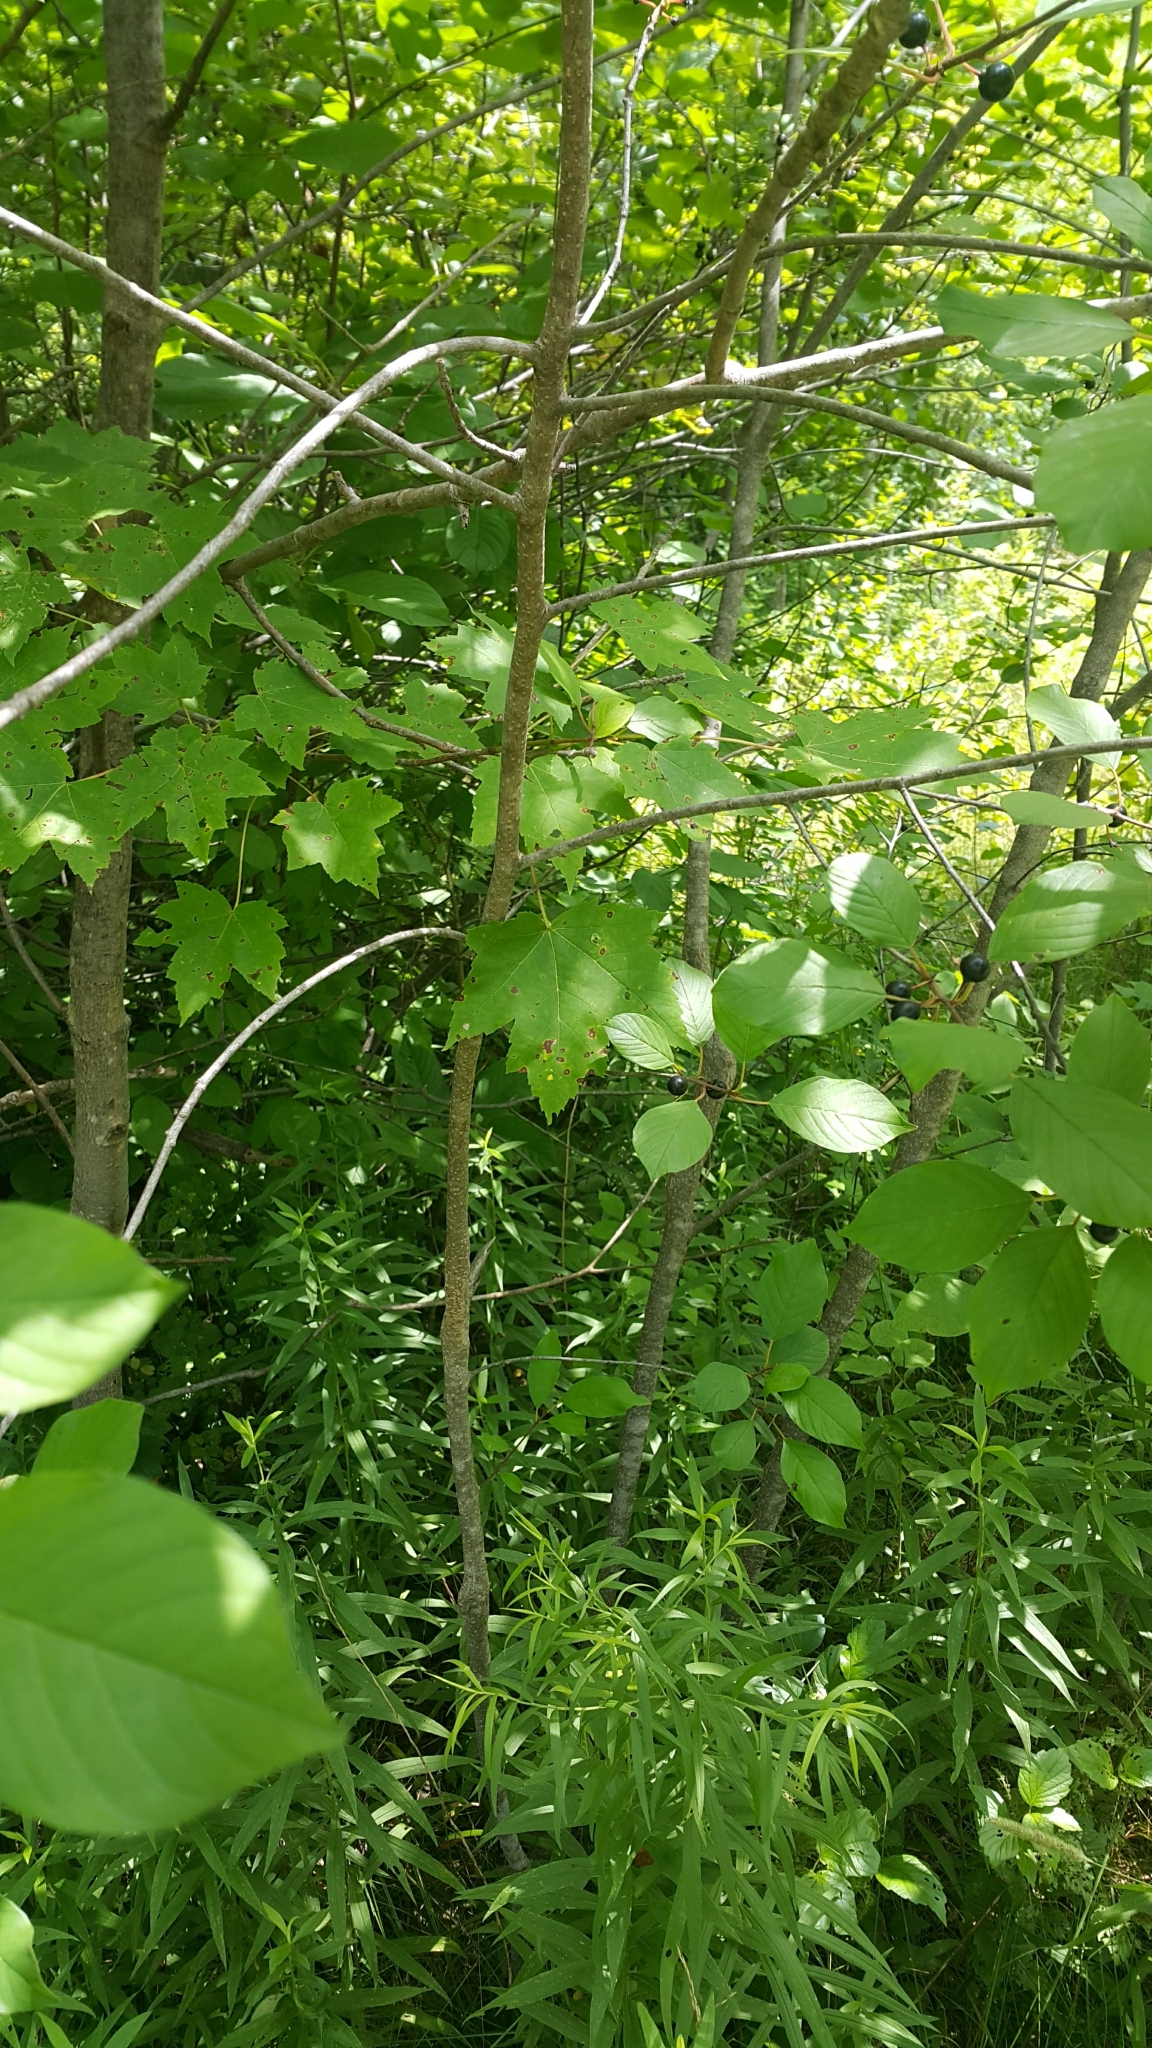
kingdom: Plantae
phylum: Tracheophyta
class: Magnoliopsida
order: Rosales
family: Rhamnaceae
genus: Frangula
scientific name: Frangula alnus
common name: Alder buckthorn
